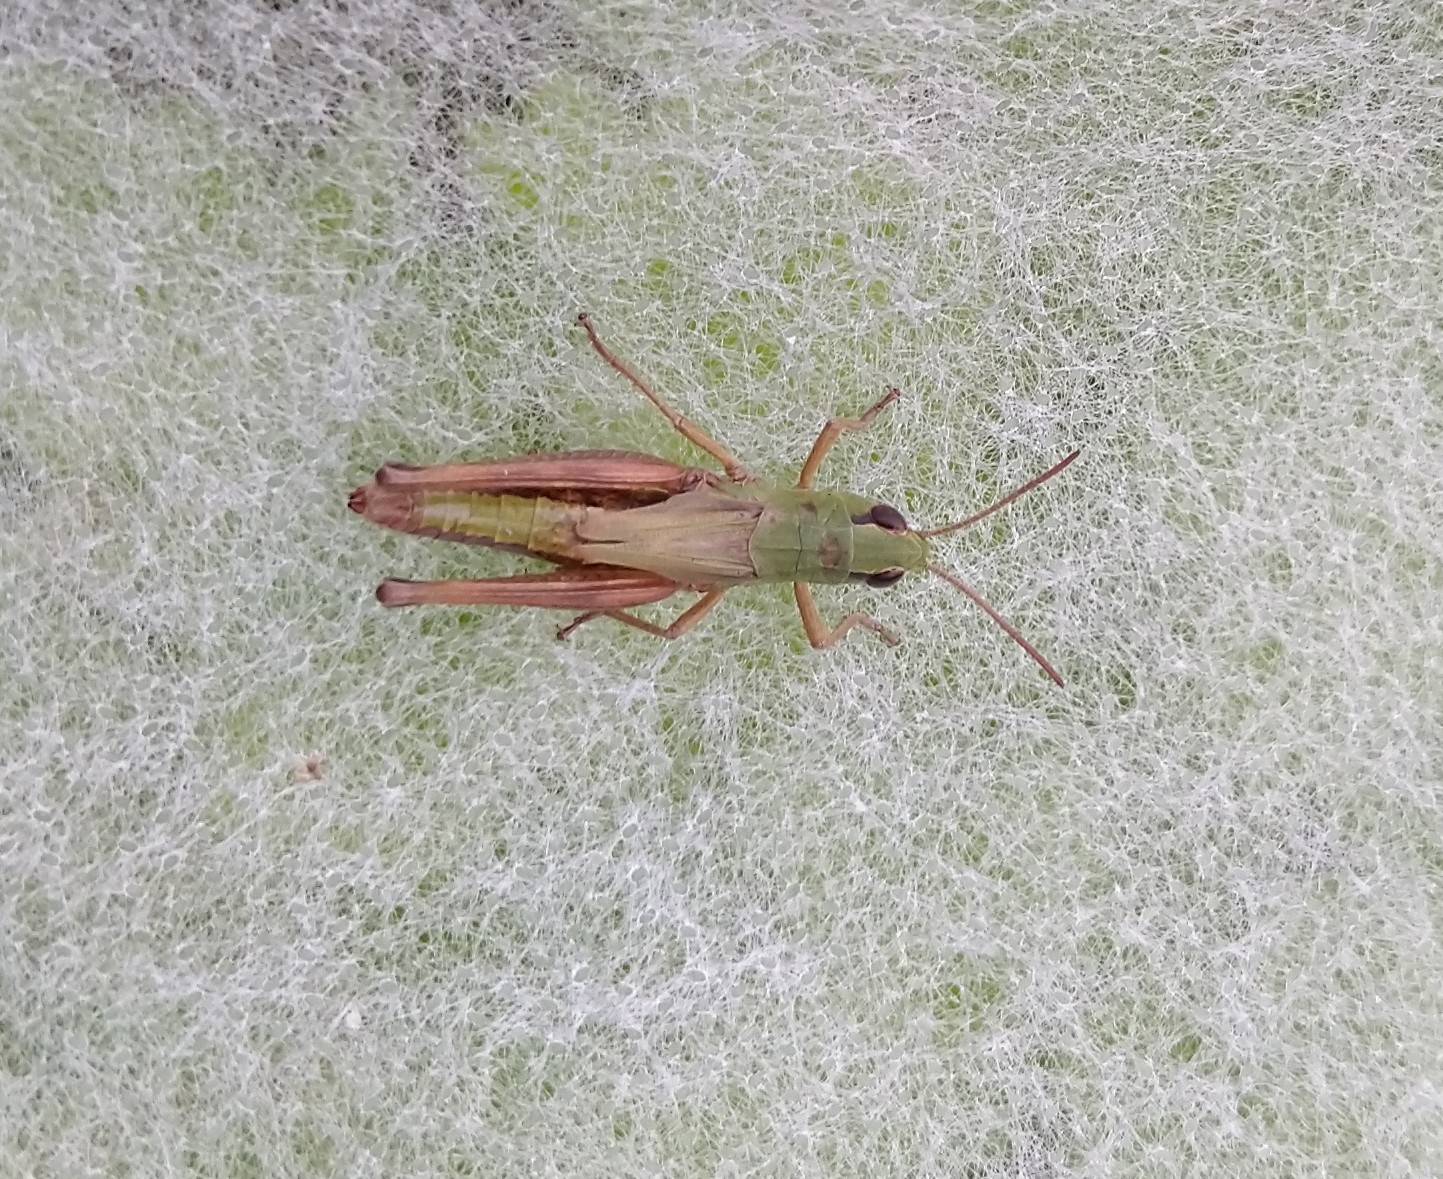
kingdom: Animalia
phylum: Arthropoda
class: Insecta
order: Orthoptera
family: Acrididae
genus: Pseudochorthippus
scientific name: Pseudochorthippus parallelus
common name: Meadow grasshopper
